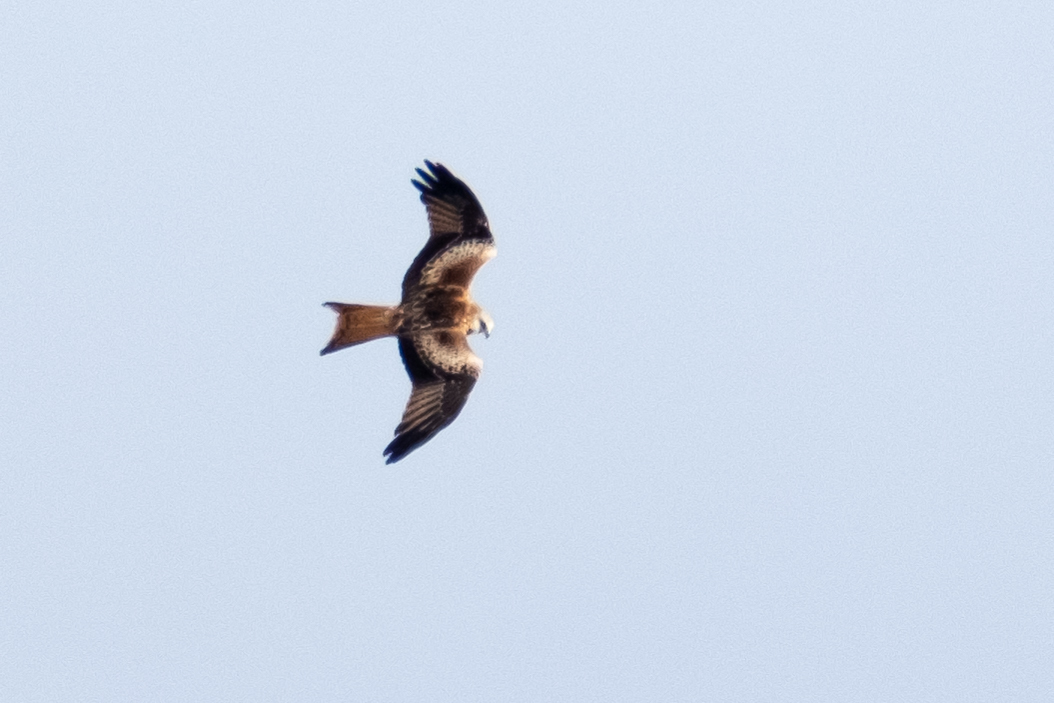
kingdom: Animalia
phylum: Chordata
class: Aves
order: Accipitriformes
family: Accipitridae
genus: Milvus
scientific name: Milvus milvus
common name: Red kite
